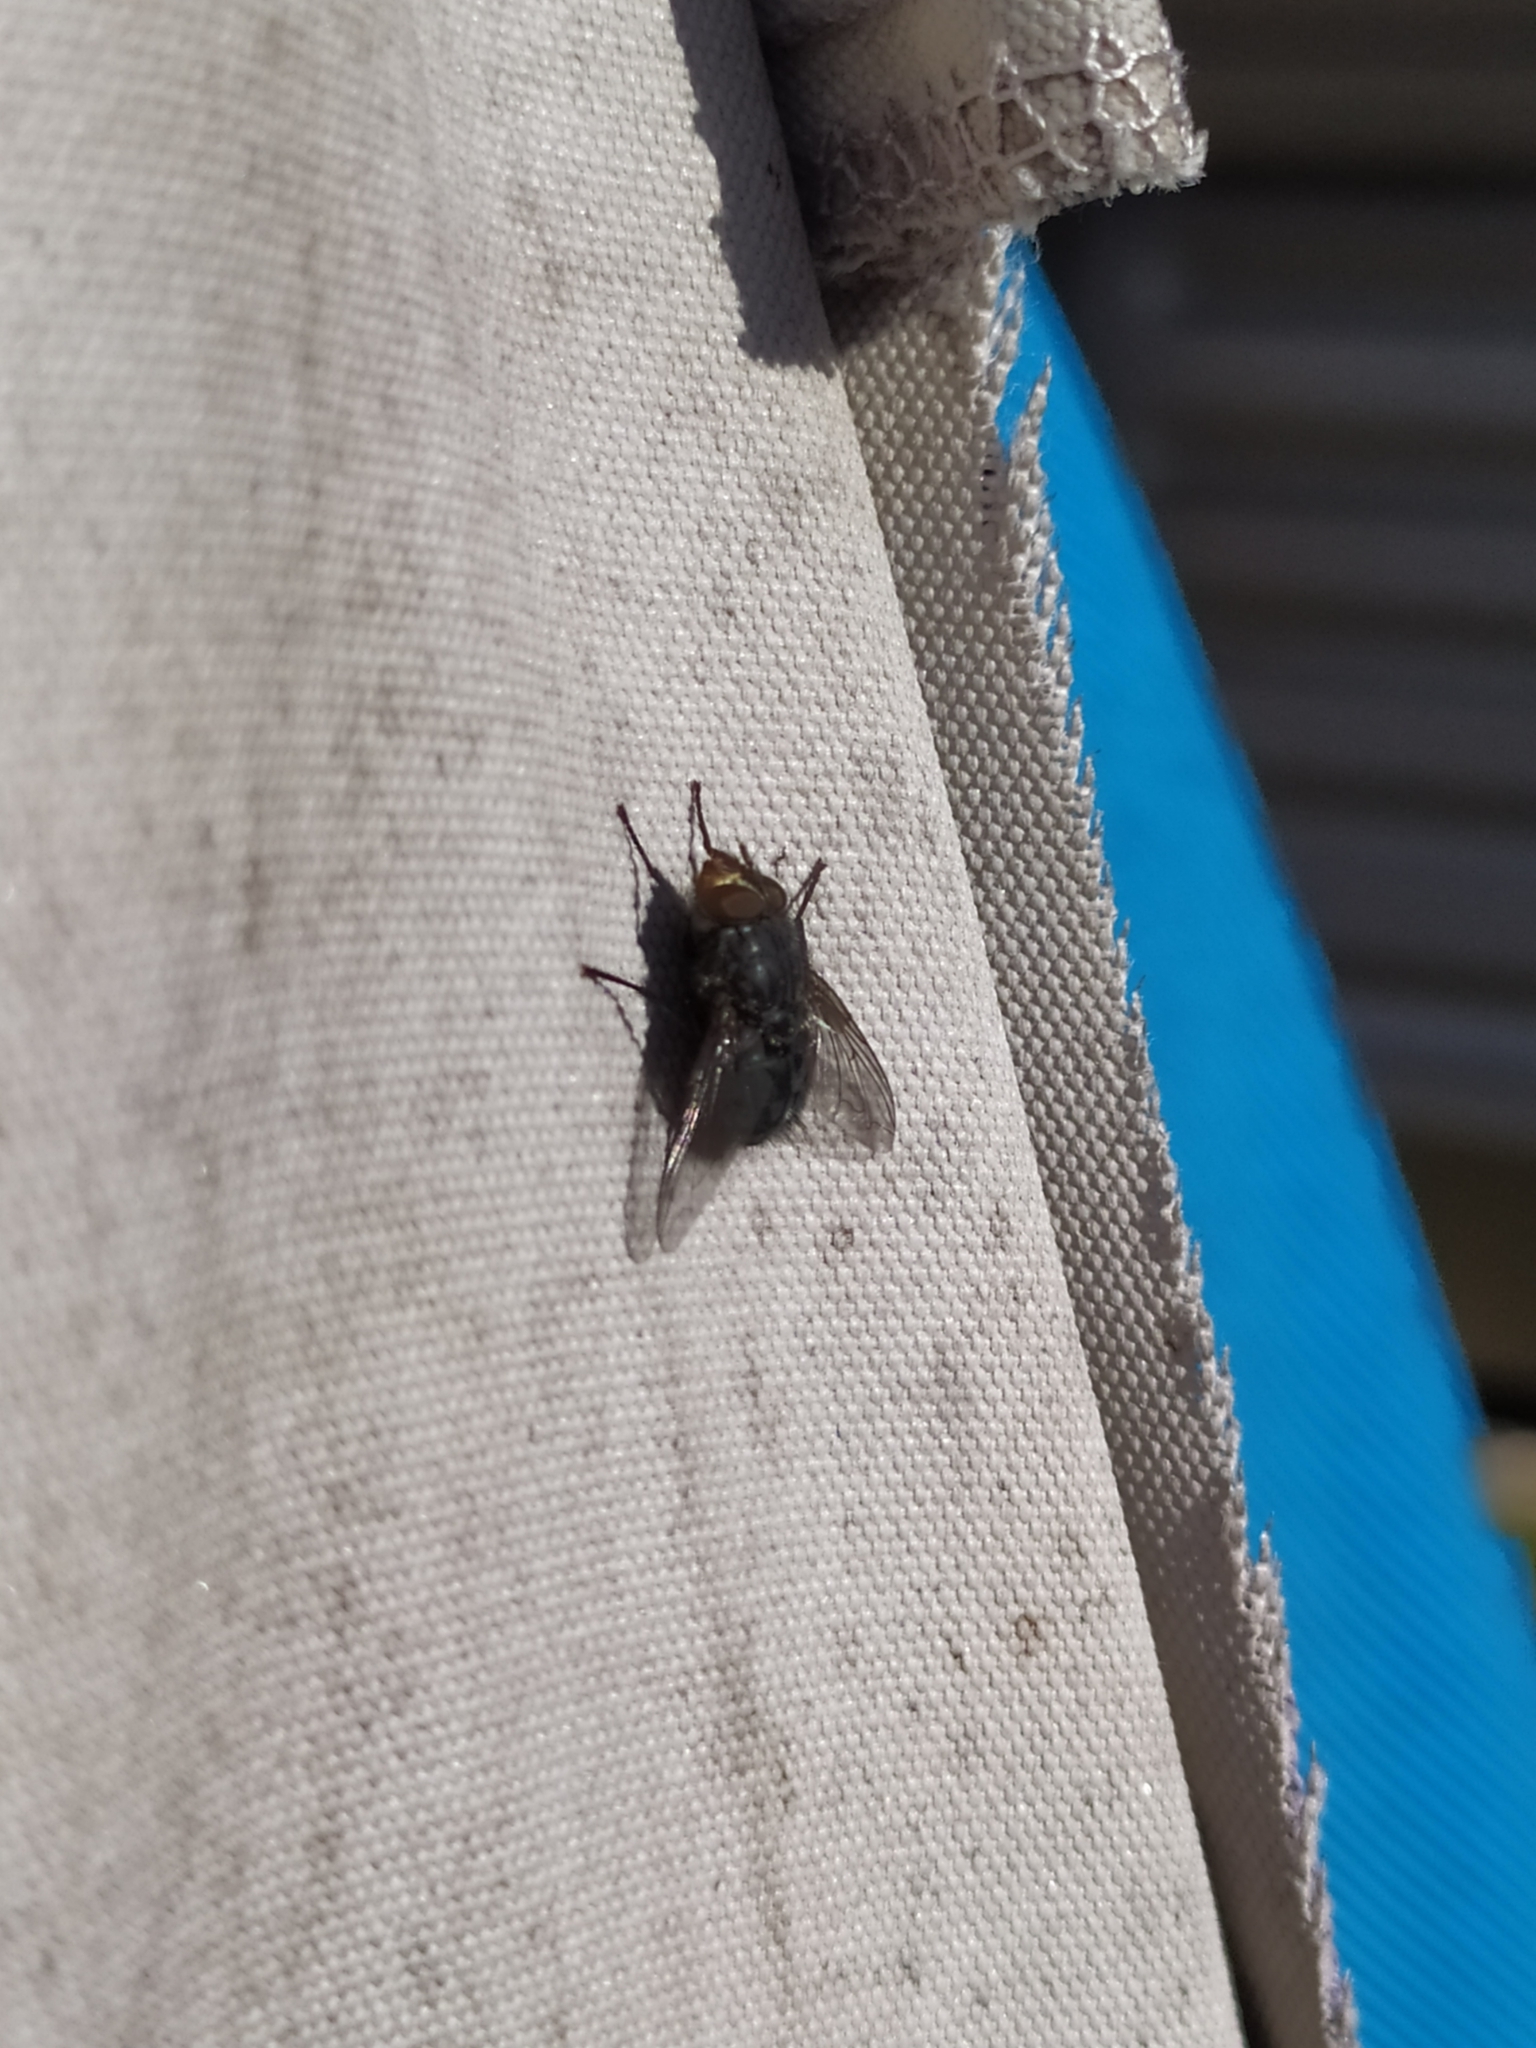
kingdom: Animalia
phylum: Arthropoda
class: Insecta
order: Diptera
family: Calliphoridae
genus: Calliphora
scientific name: Calliphora vicina
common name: Common blow flie
